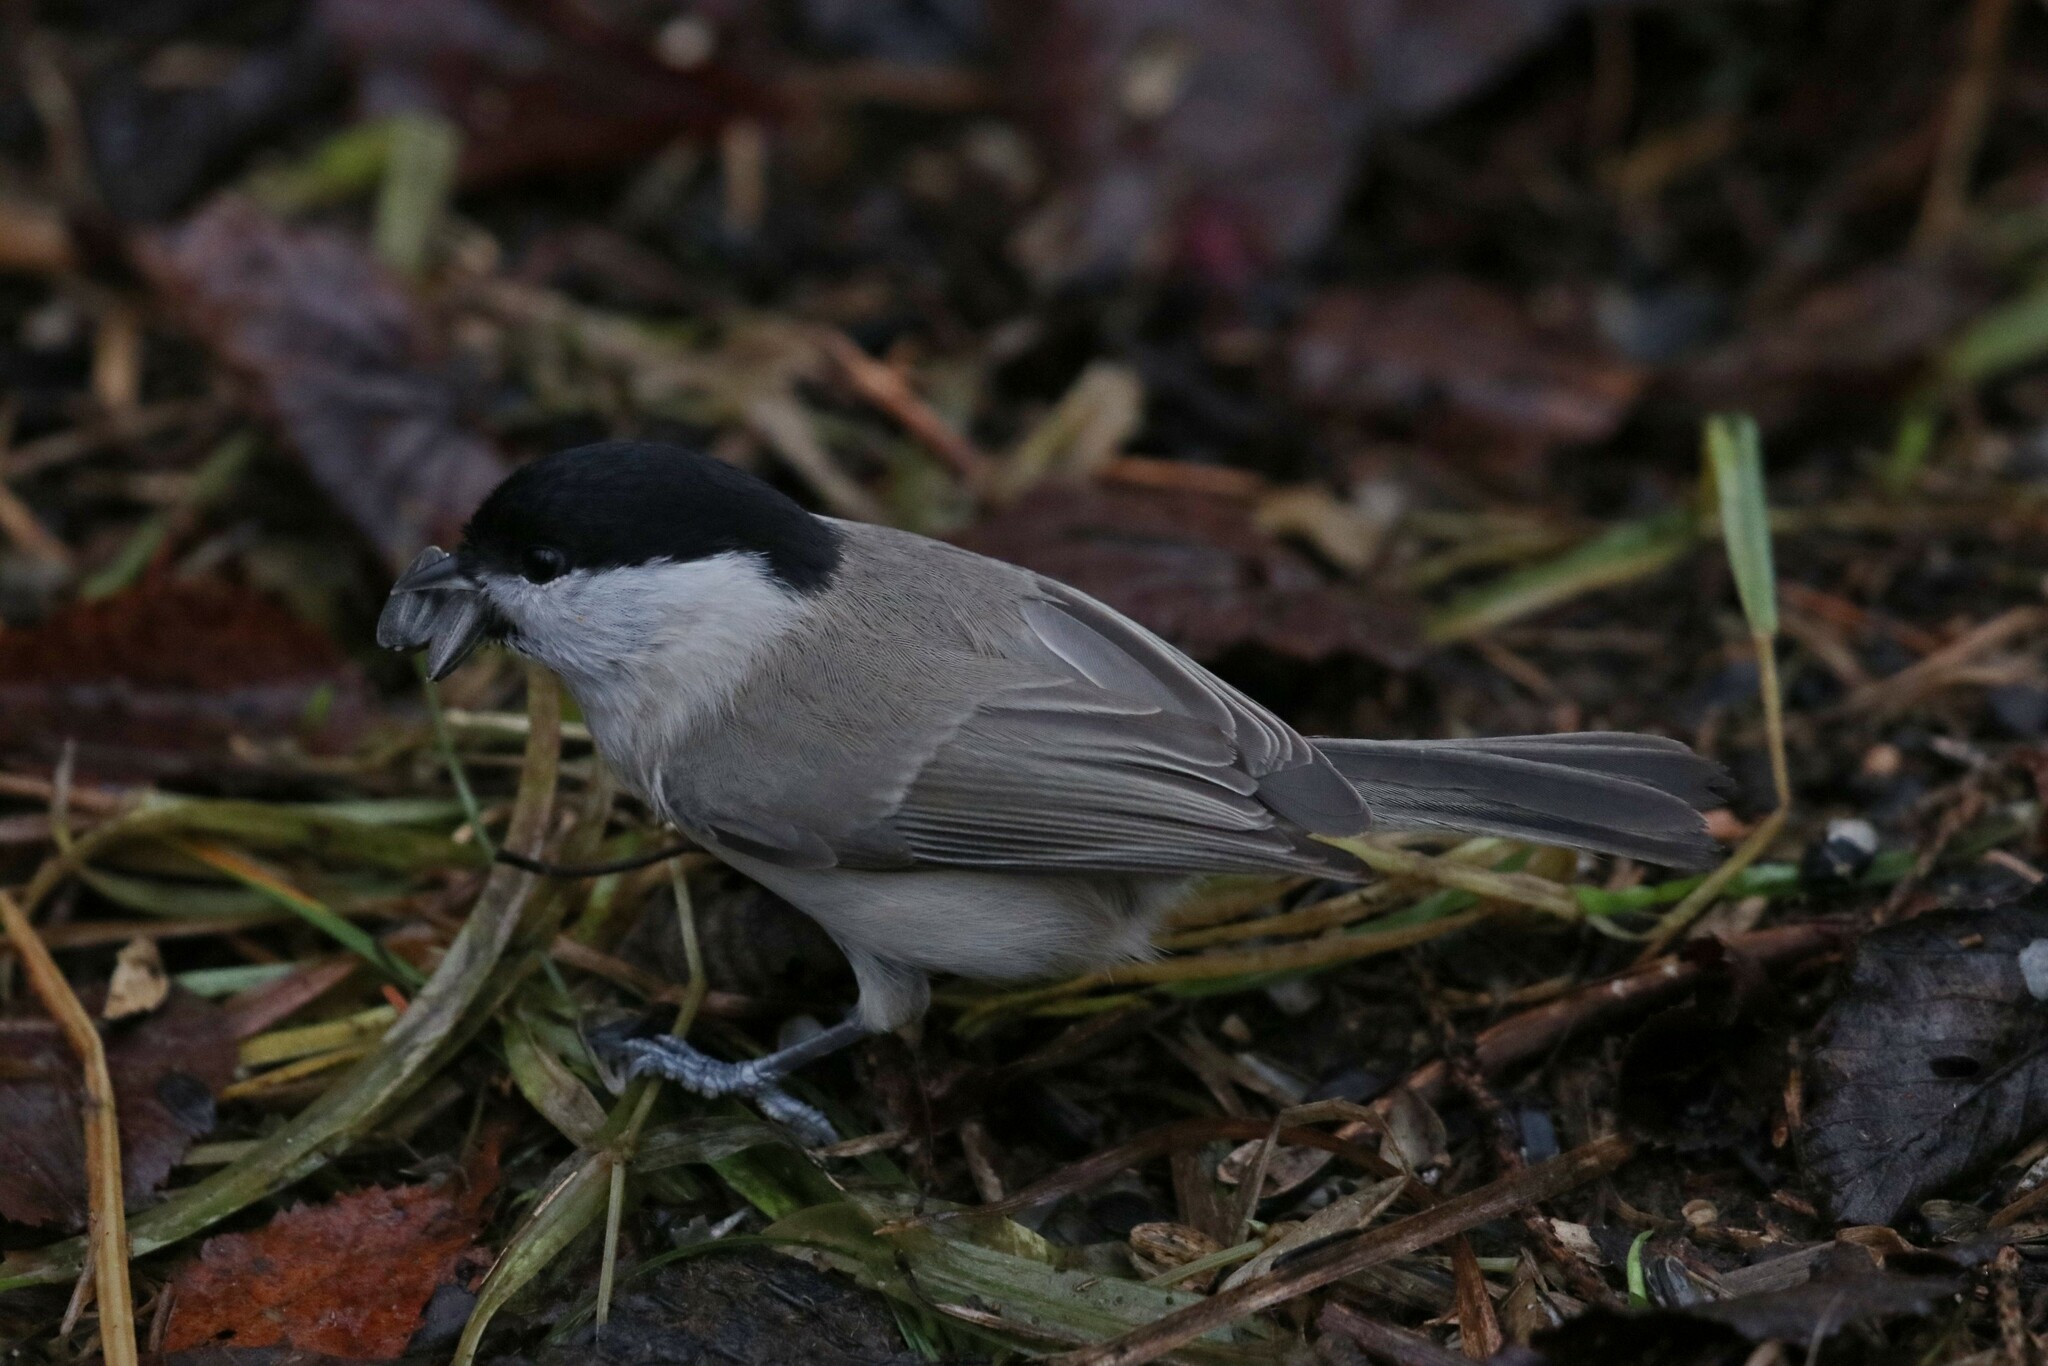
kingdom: Animalia
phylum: Chordata
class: Aves
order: Passeriformes
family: Paridae
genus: Poecile
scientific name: Poecile palustris
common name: Marsh tit
